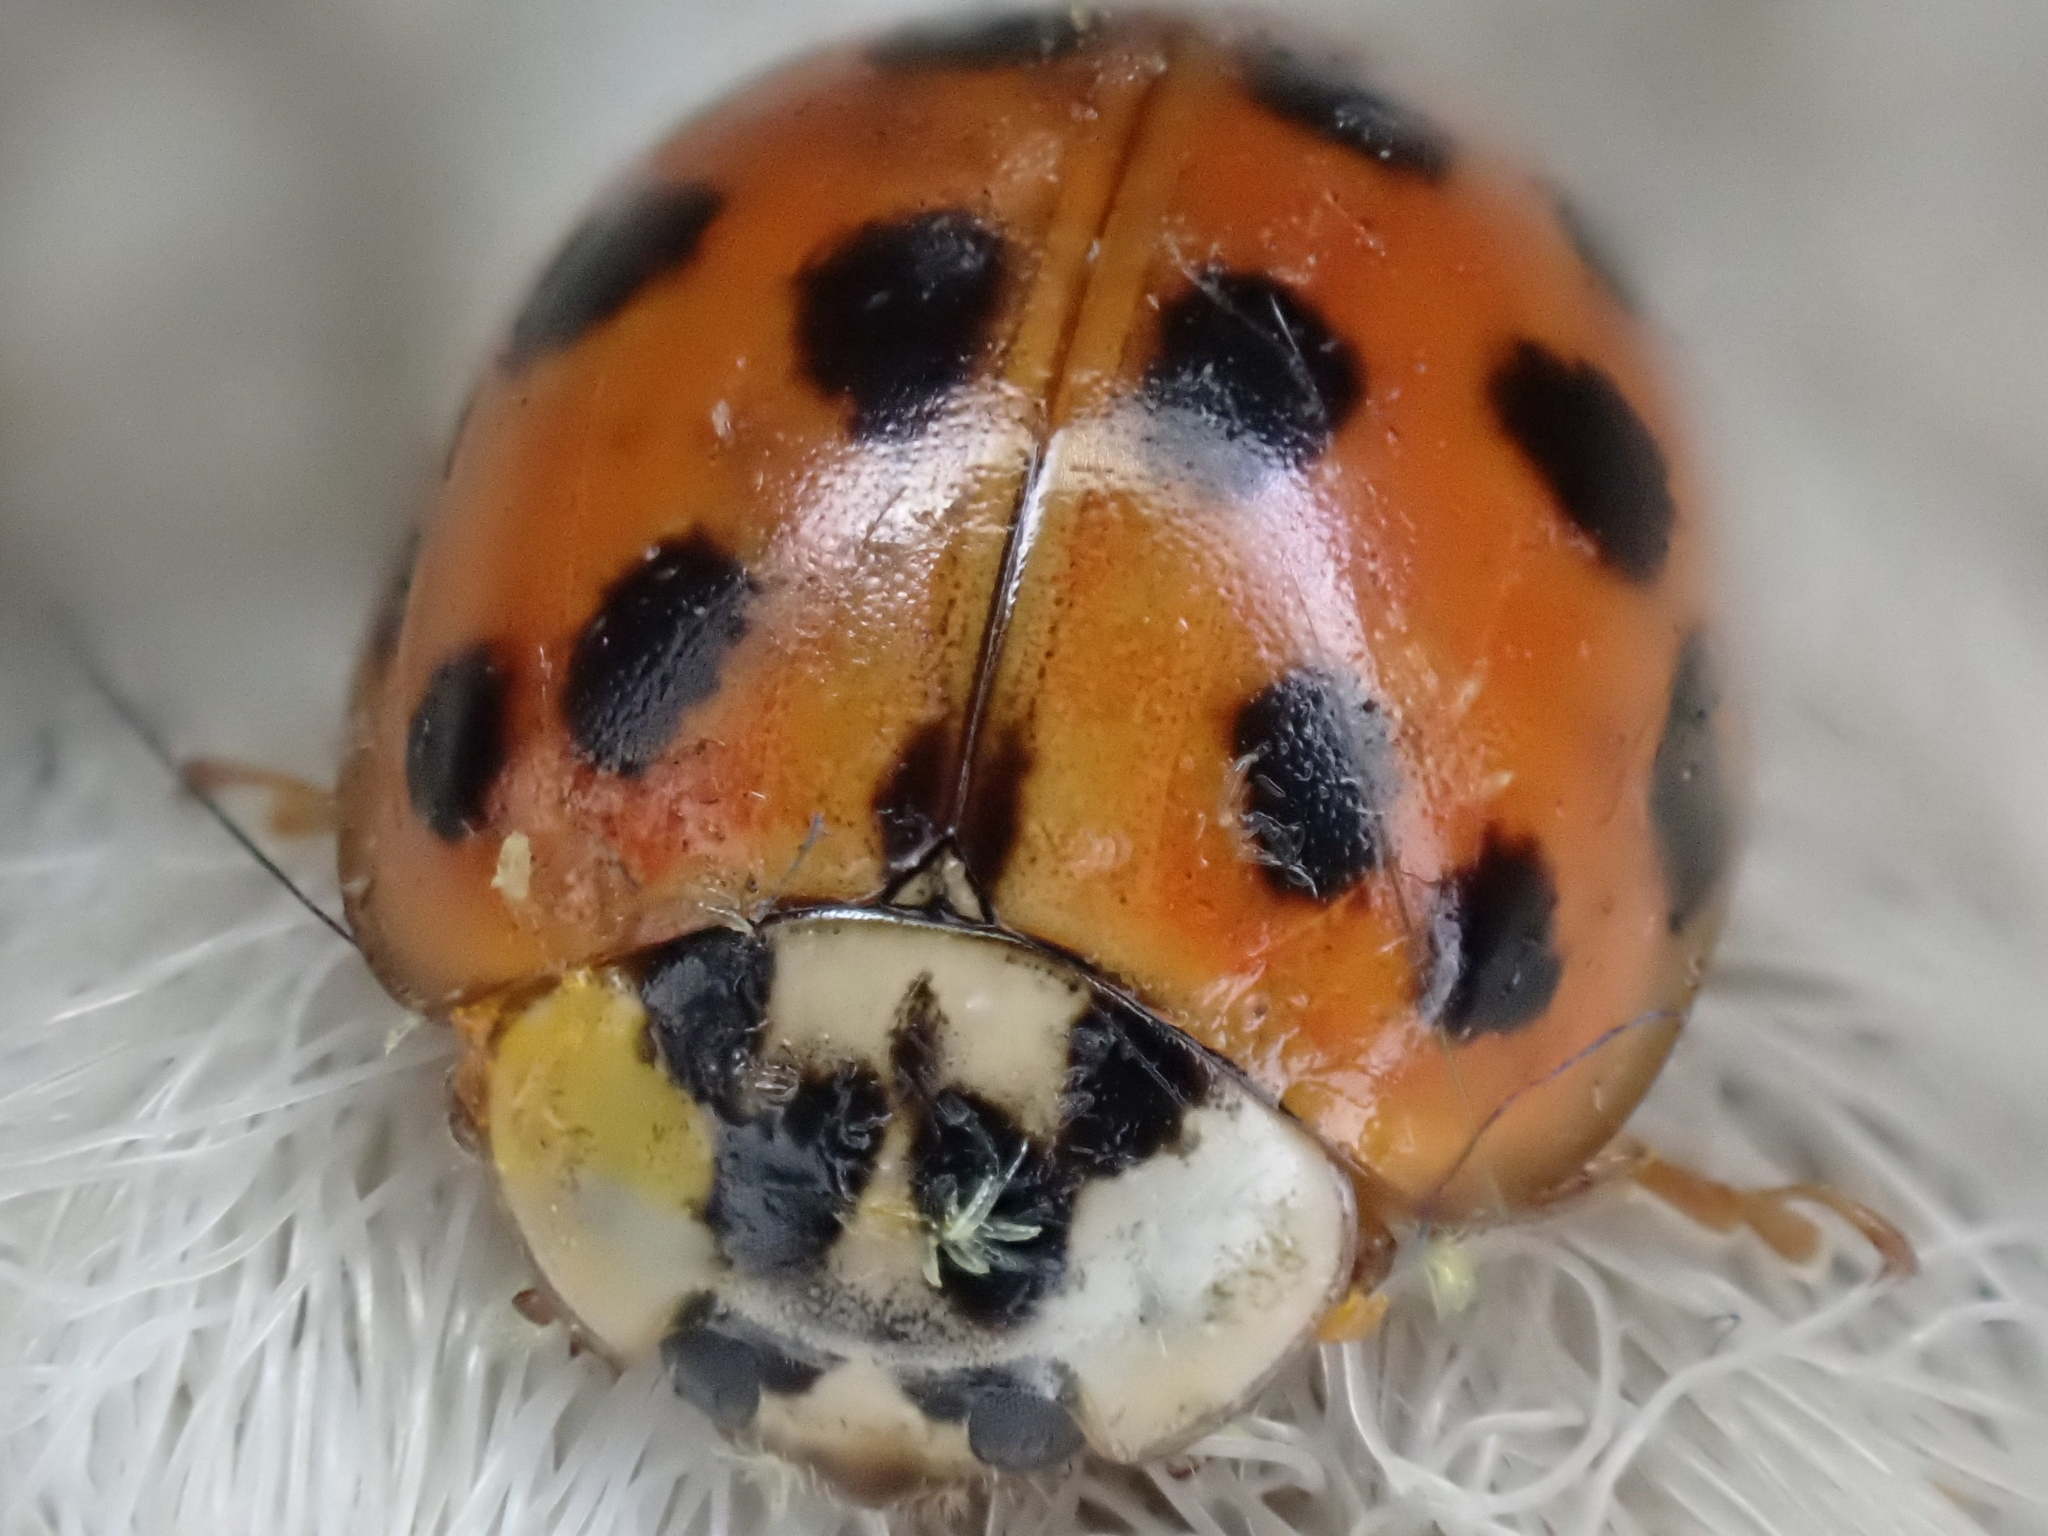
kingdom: Animalia
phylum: Arthropoda
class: Insecta
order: Coleoptera
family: Coccinellidae
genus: Harmonia
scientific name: Harmonia axyridis
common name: Harlequin ladybird
